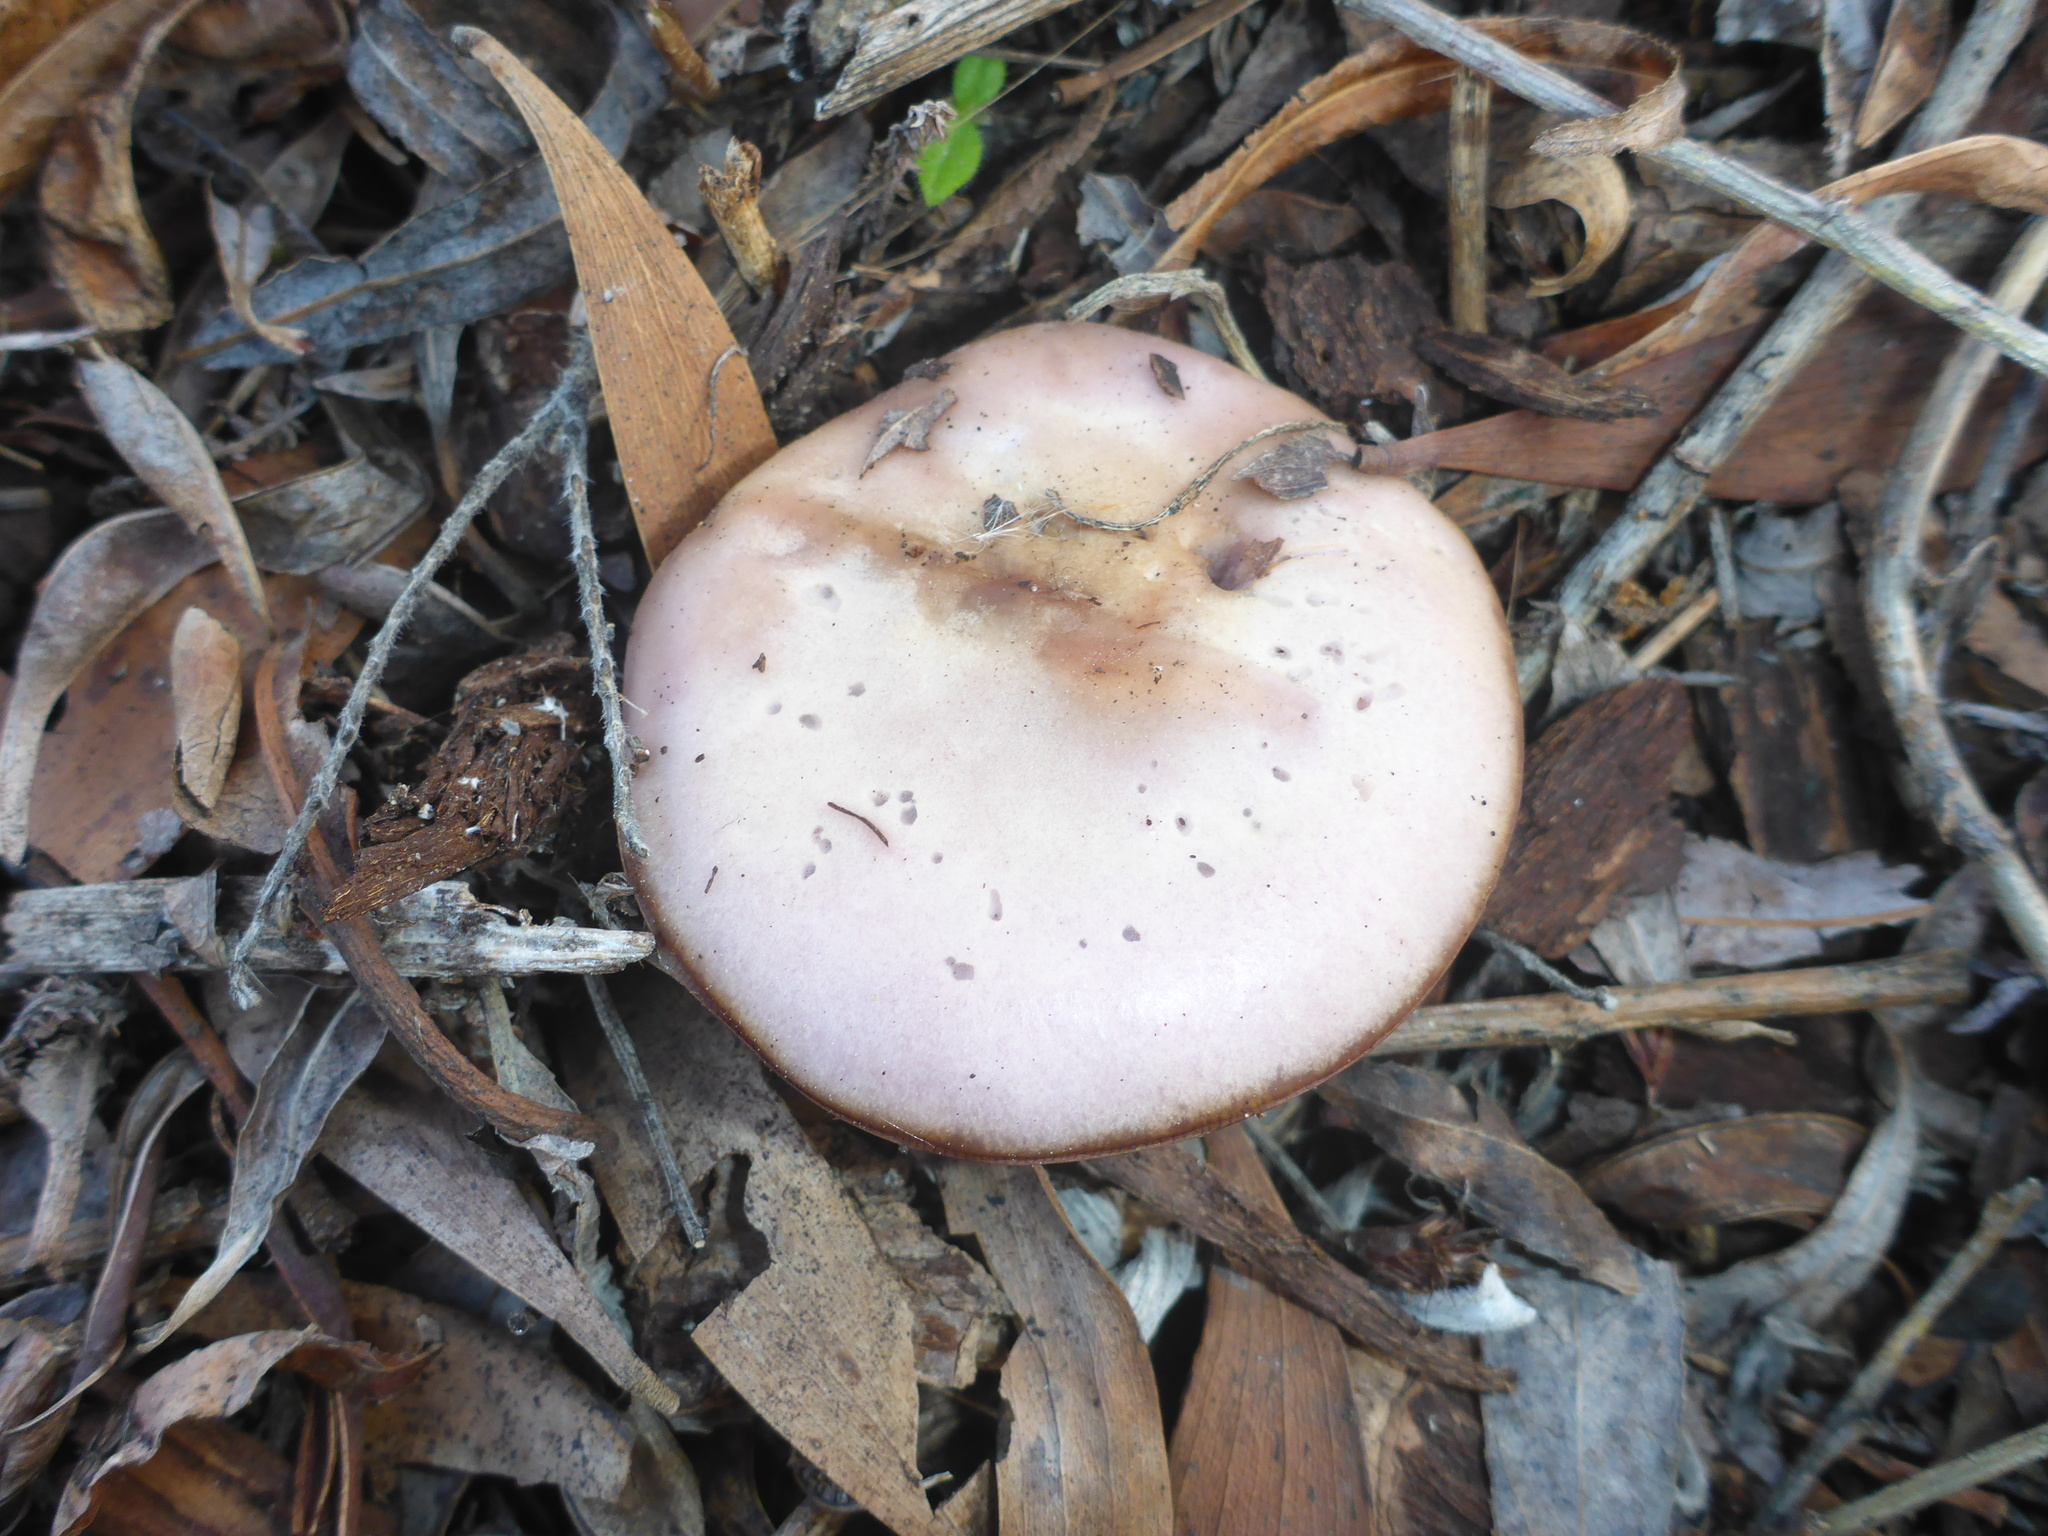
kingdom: Fungi
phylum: Basidiomycota
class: Agaricomycetes
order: Agaricales
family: Tricholomataceae
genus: Collybia
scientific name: Collybia
